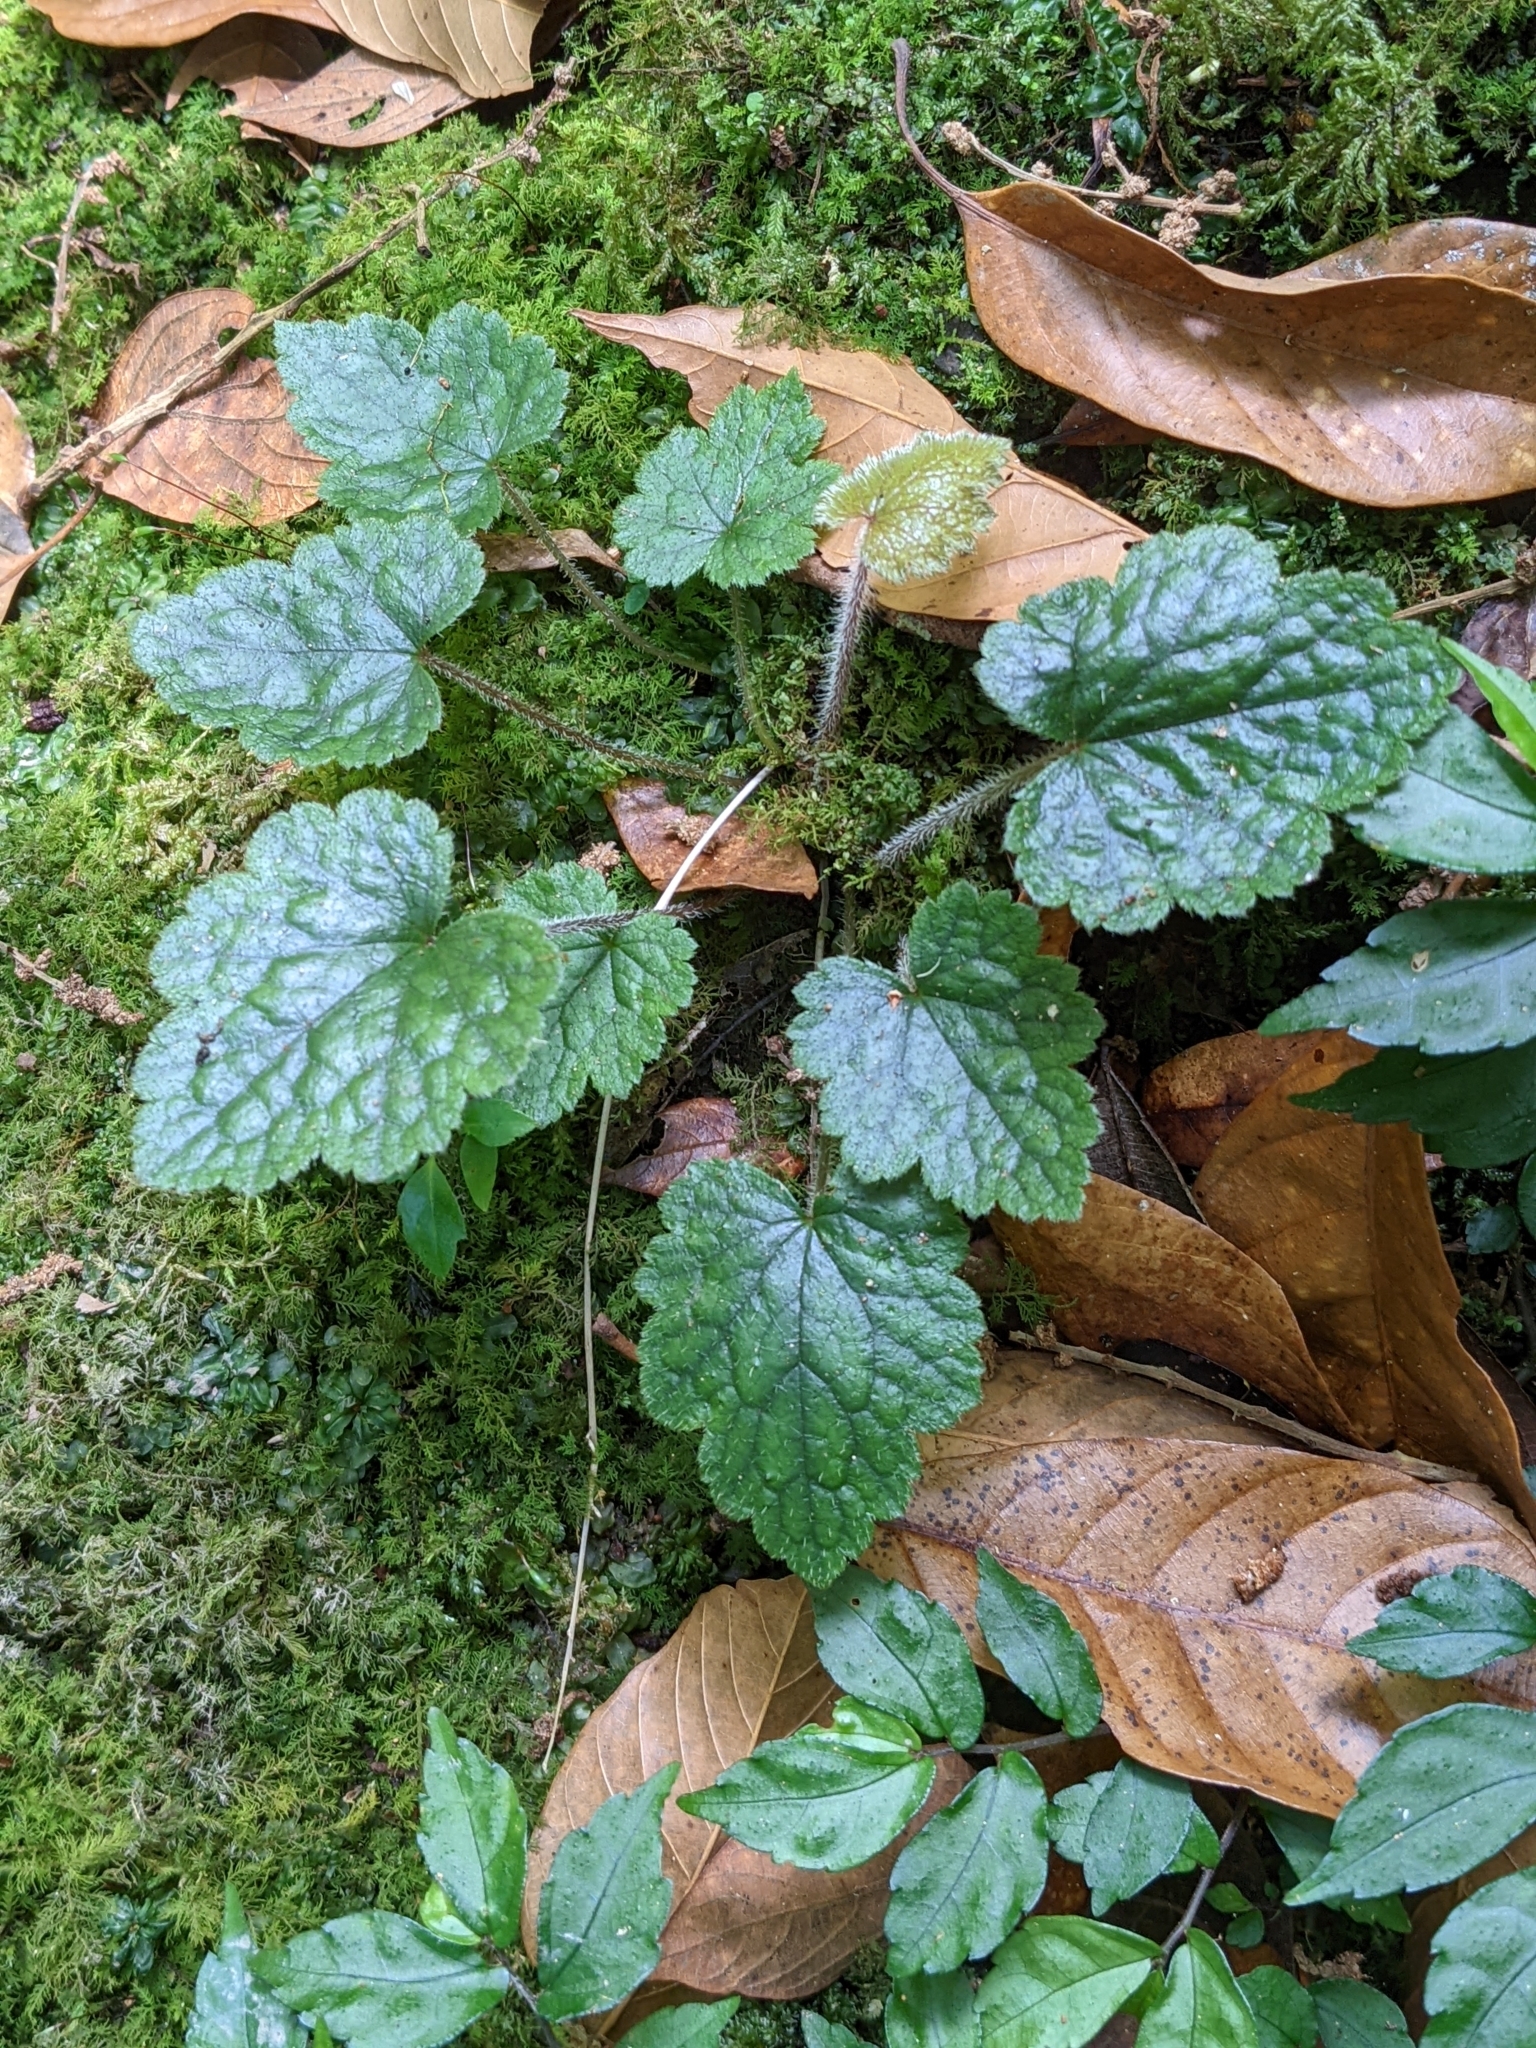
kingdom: Plantae
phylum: Tracheophyta
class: Magnoliopsida
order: Saxifragales
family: Saxifragaceae
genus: Asimitellaria
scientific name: Asimitellaria formosana
